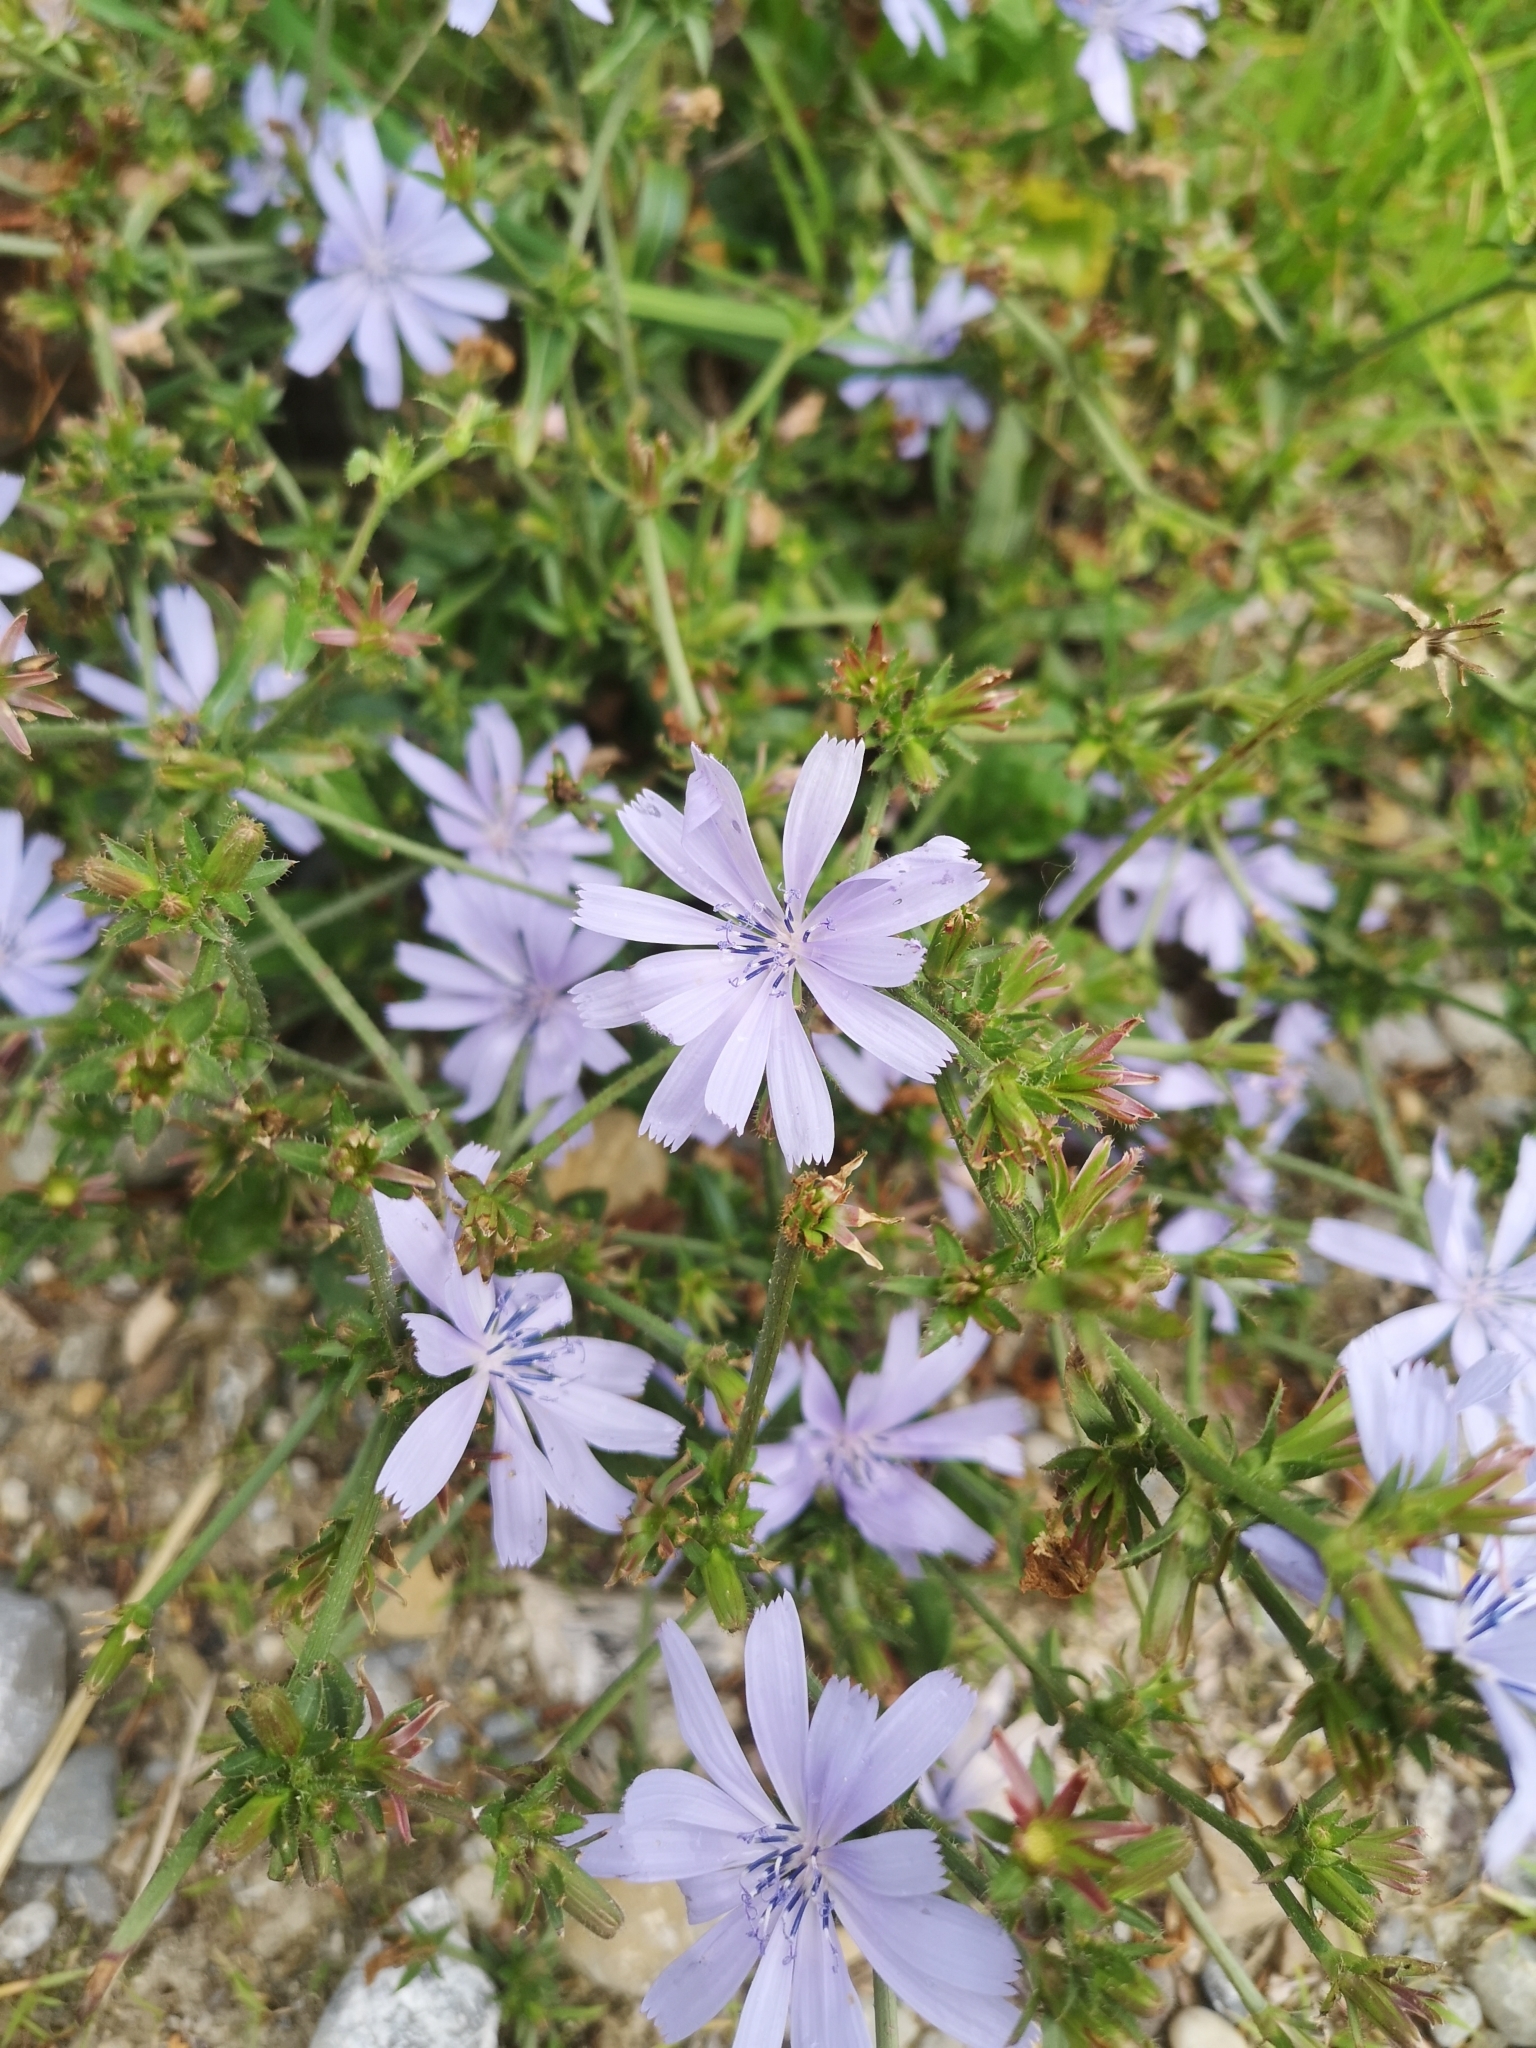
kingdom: Plantae
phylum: Tracheophyta
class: Magnoliopsida
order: Asterales
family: Asteraceae
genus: Cichorium
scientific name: Cichorium intybus
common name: Chicory
